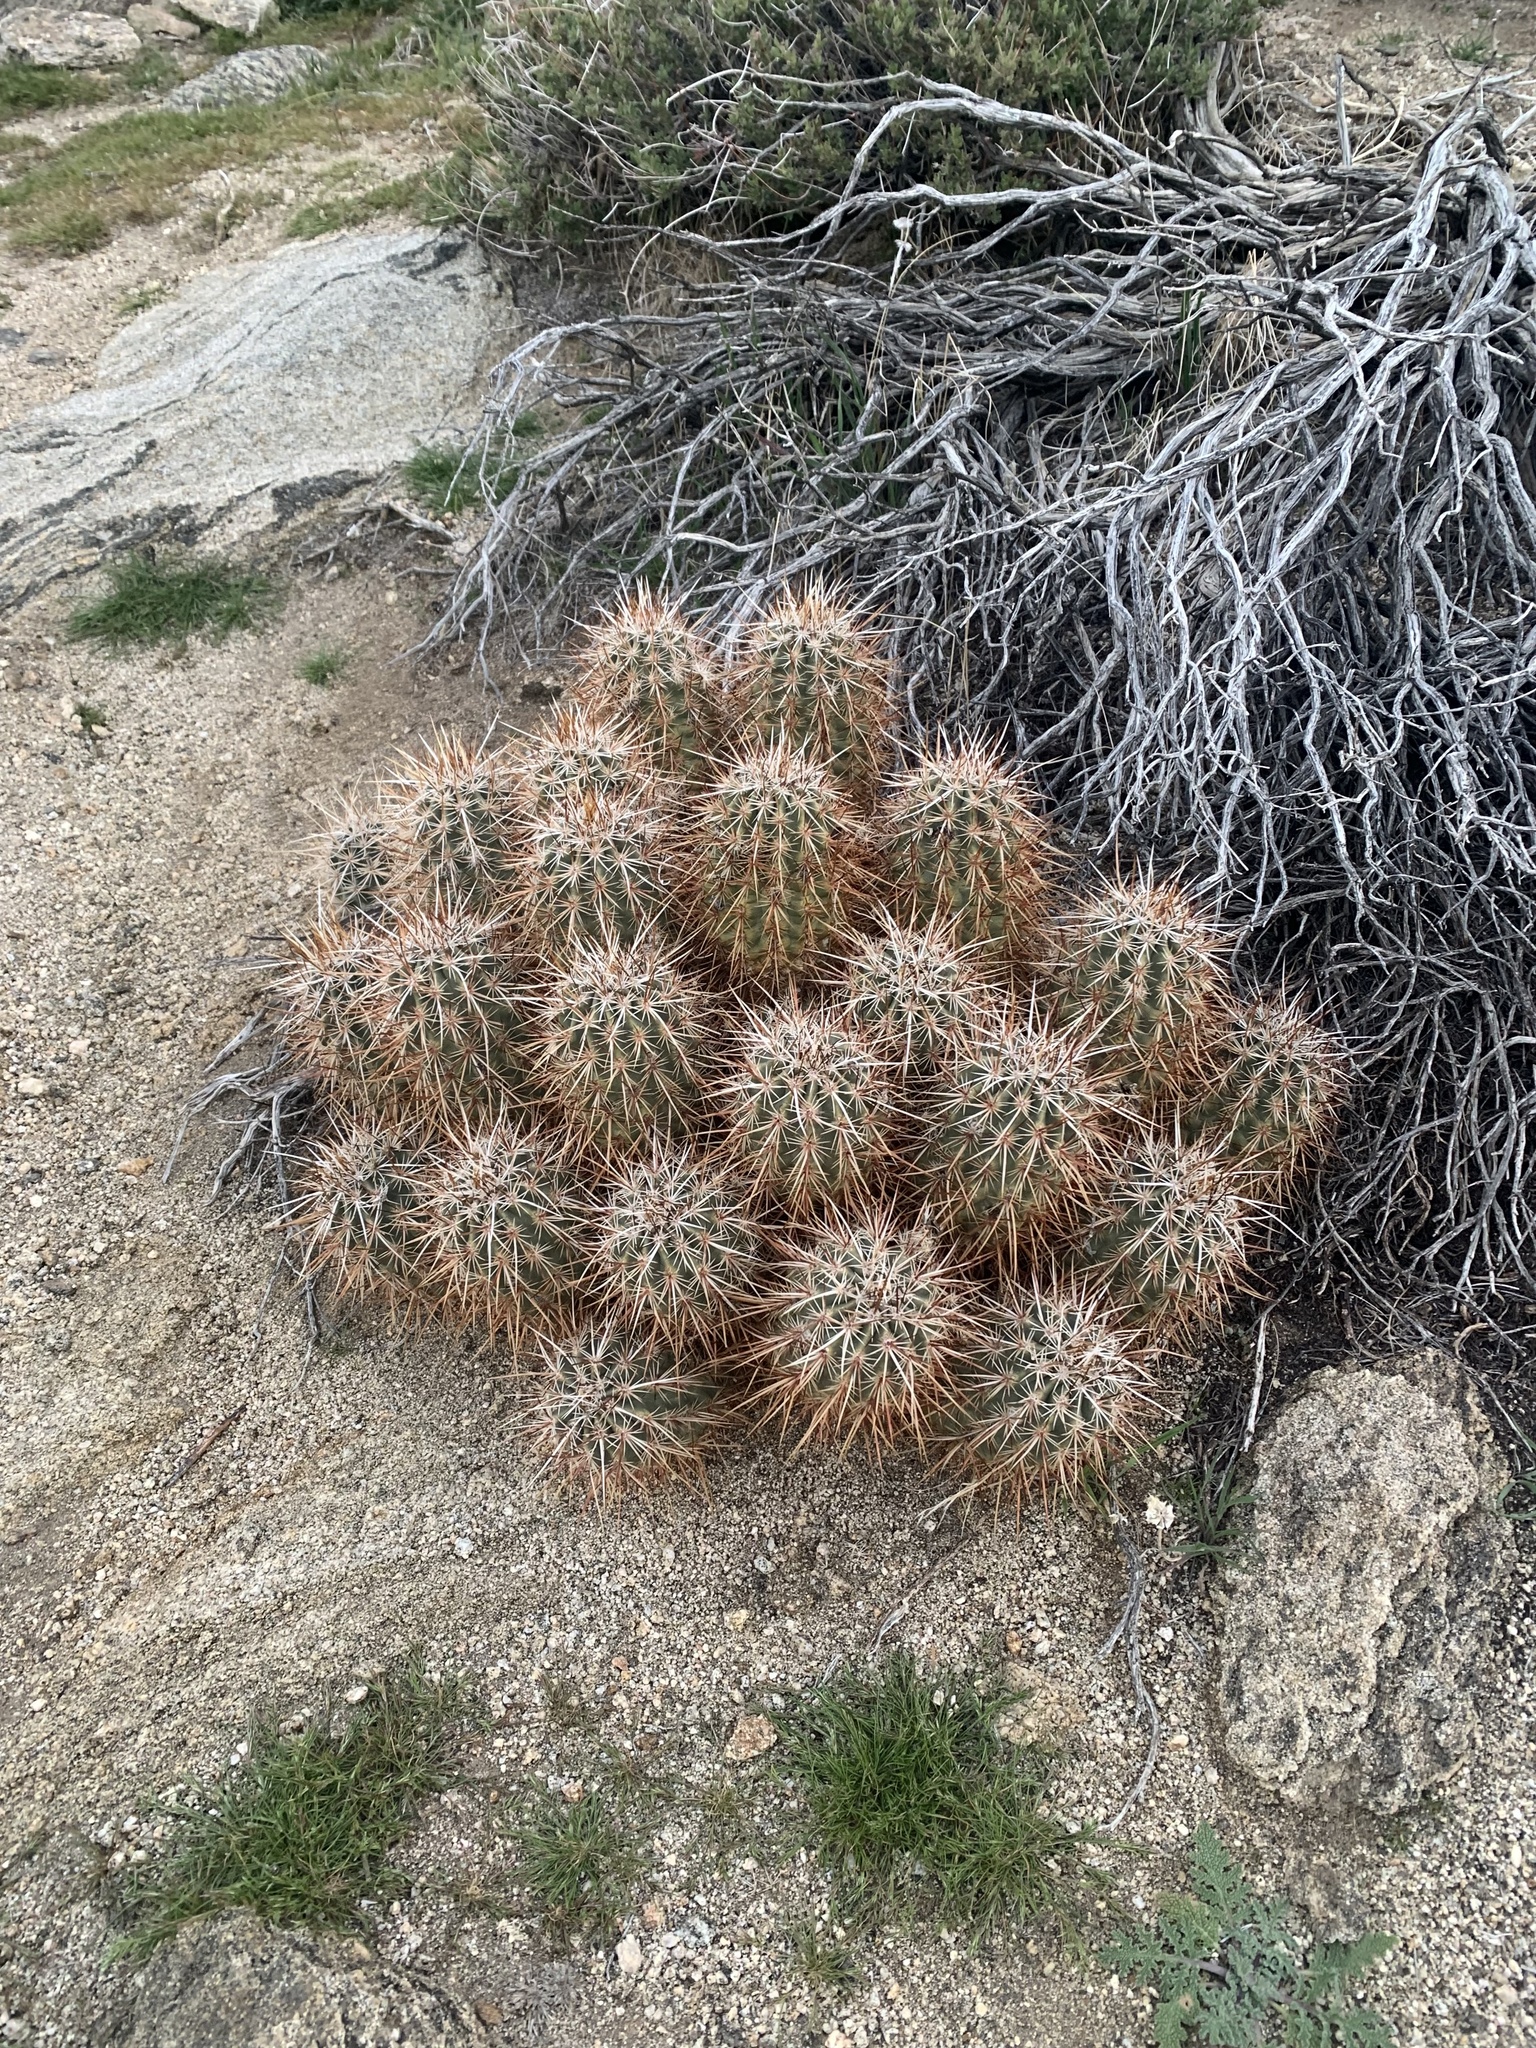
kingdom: Plantae
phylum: Tracheophyta
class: Magnoliopsida
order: Caryophyllales
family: Cactaceae
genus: Echinocereus
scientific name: Echinocereus engelmannii
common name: Engelmann's hedgehog cactus
